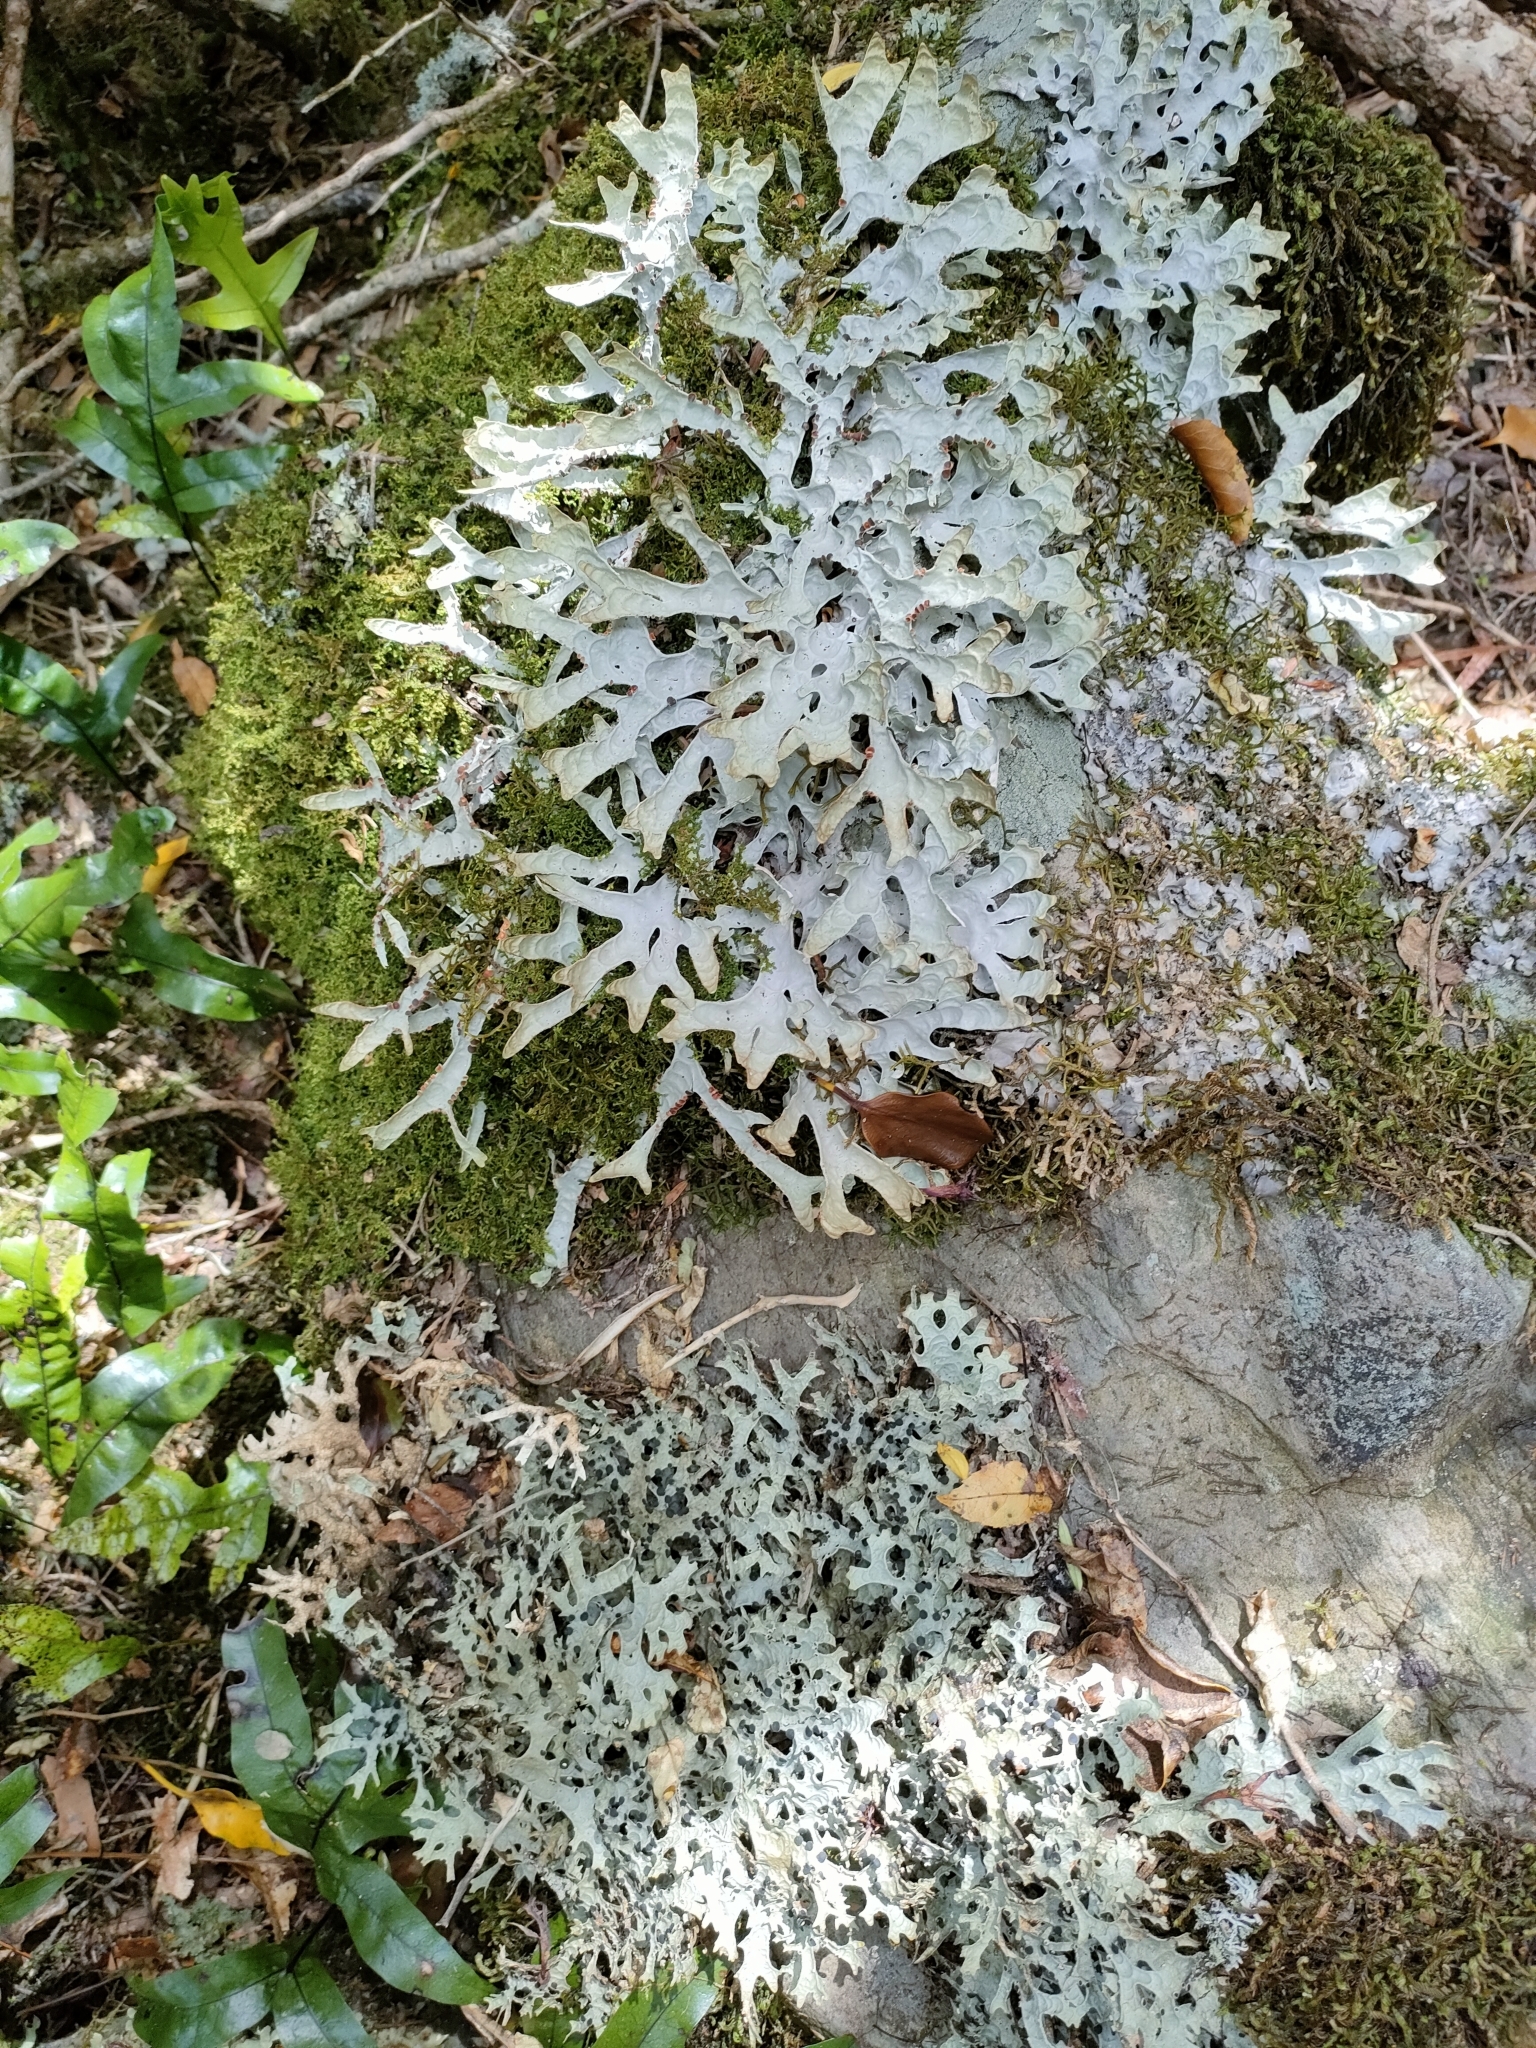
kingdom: Fungi
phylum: Ascomycota
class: Lecanoromycetes
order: Peltigerales
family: Lobariaceae
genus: Pseudocyphellaria
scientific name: Pseudocyphellaria rufovirescens
